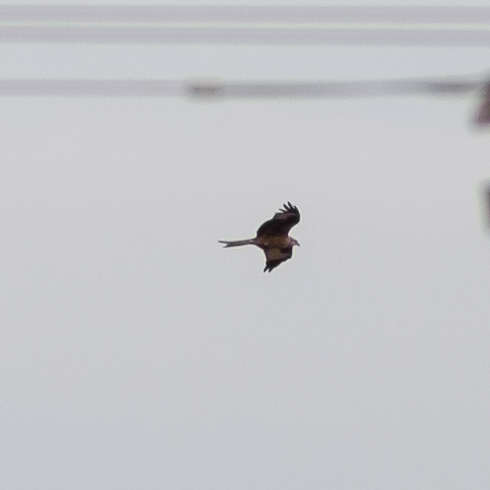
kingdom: Animalia
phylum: Chordata
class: Aves
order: Accipitriformes
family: Accipitridae
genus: Milvus
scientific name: Milvus milvus
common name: Red kite
